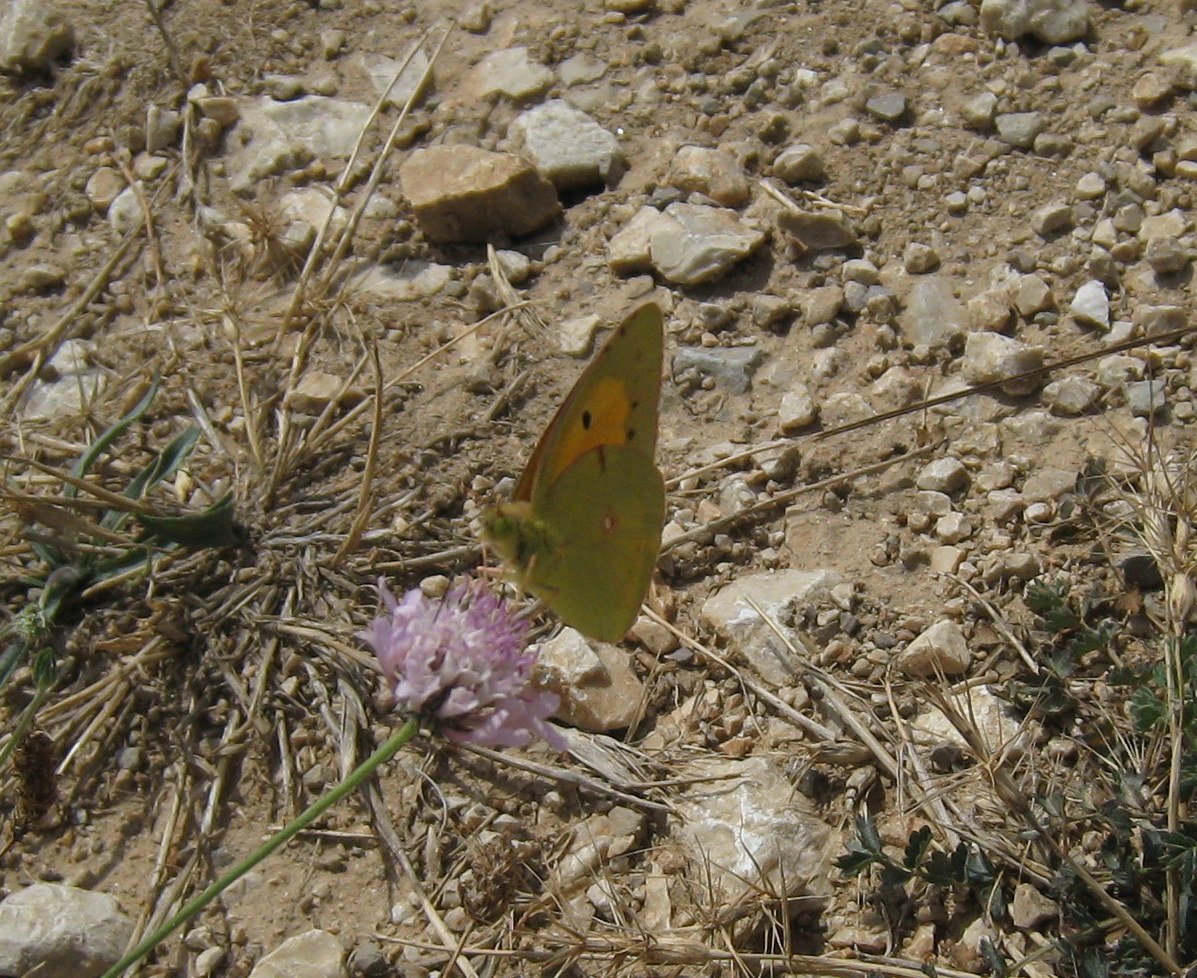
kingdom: Animalia
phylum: Arthropoda
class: Insecta
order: Lepidoptera
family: Pieridae
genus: Colias
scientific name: Colias croceus
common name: Clouded yellow
